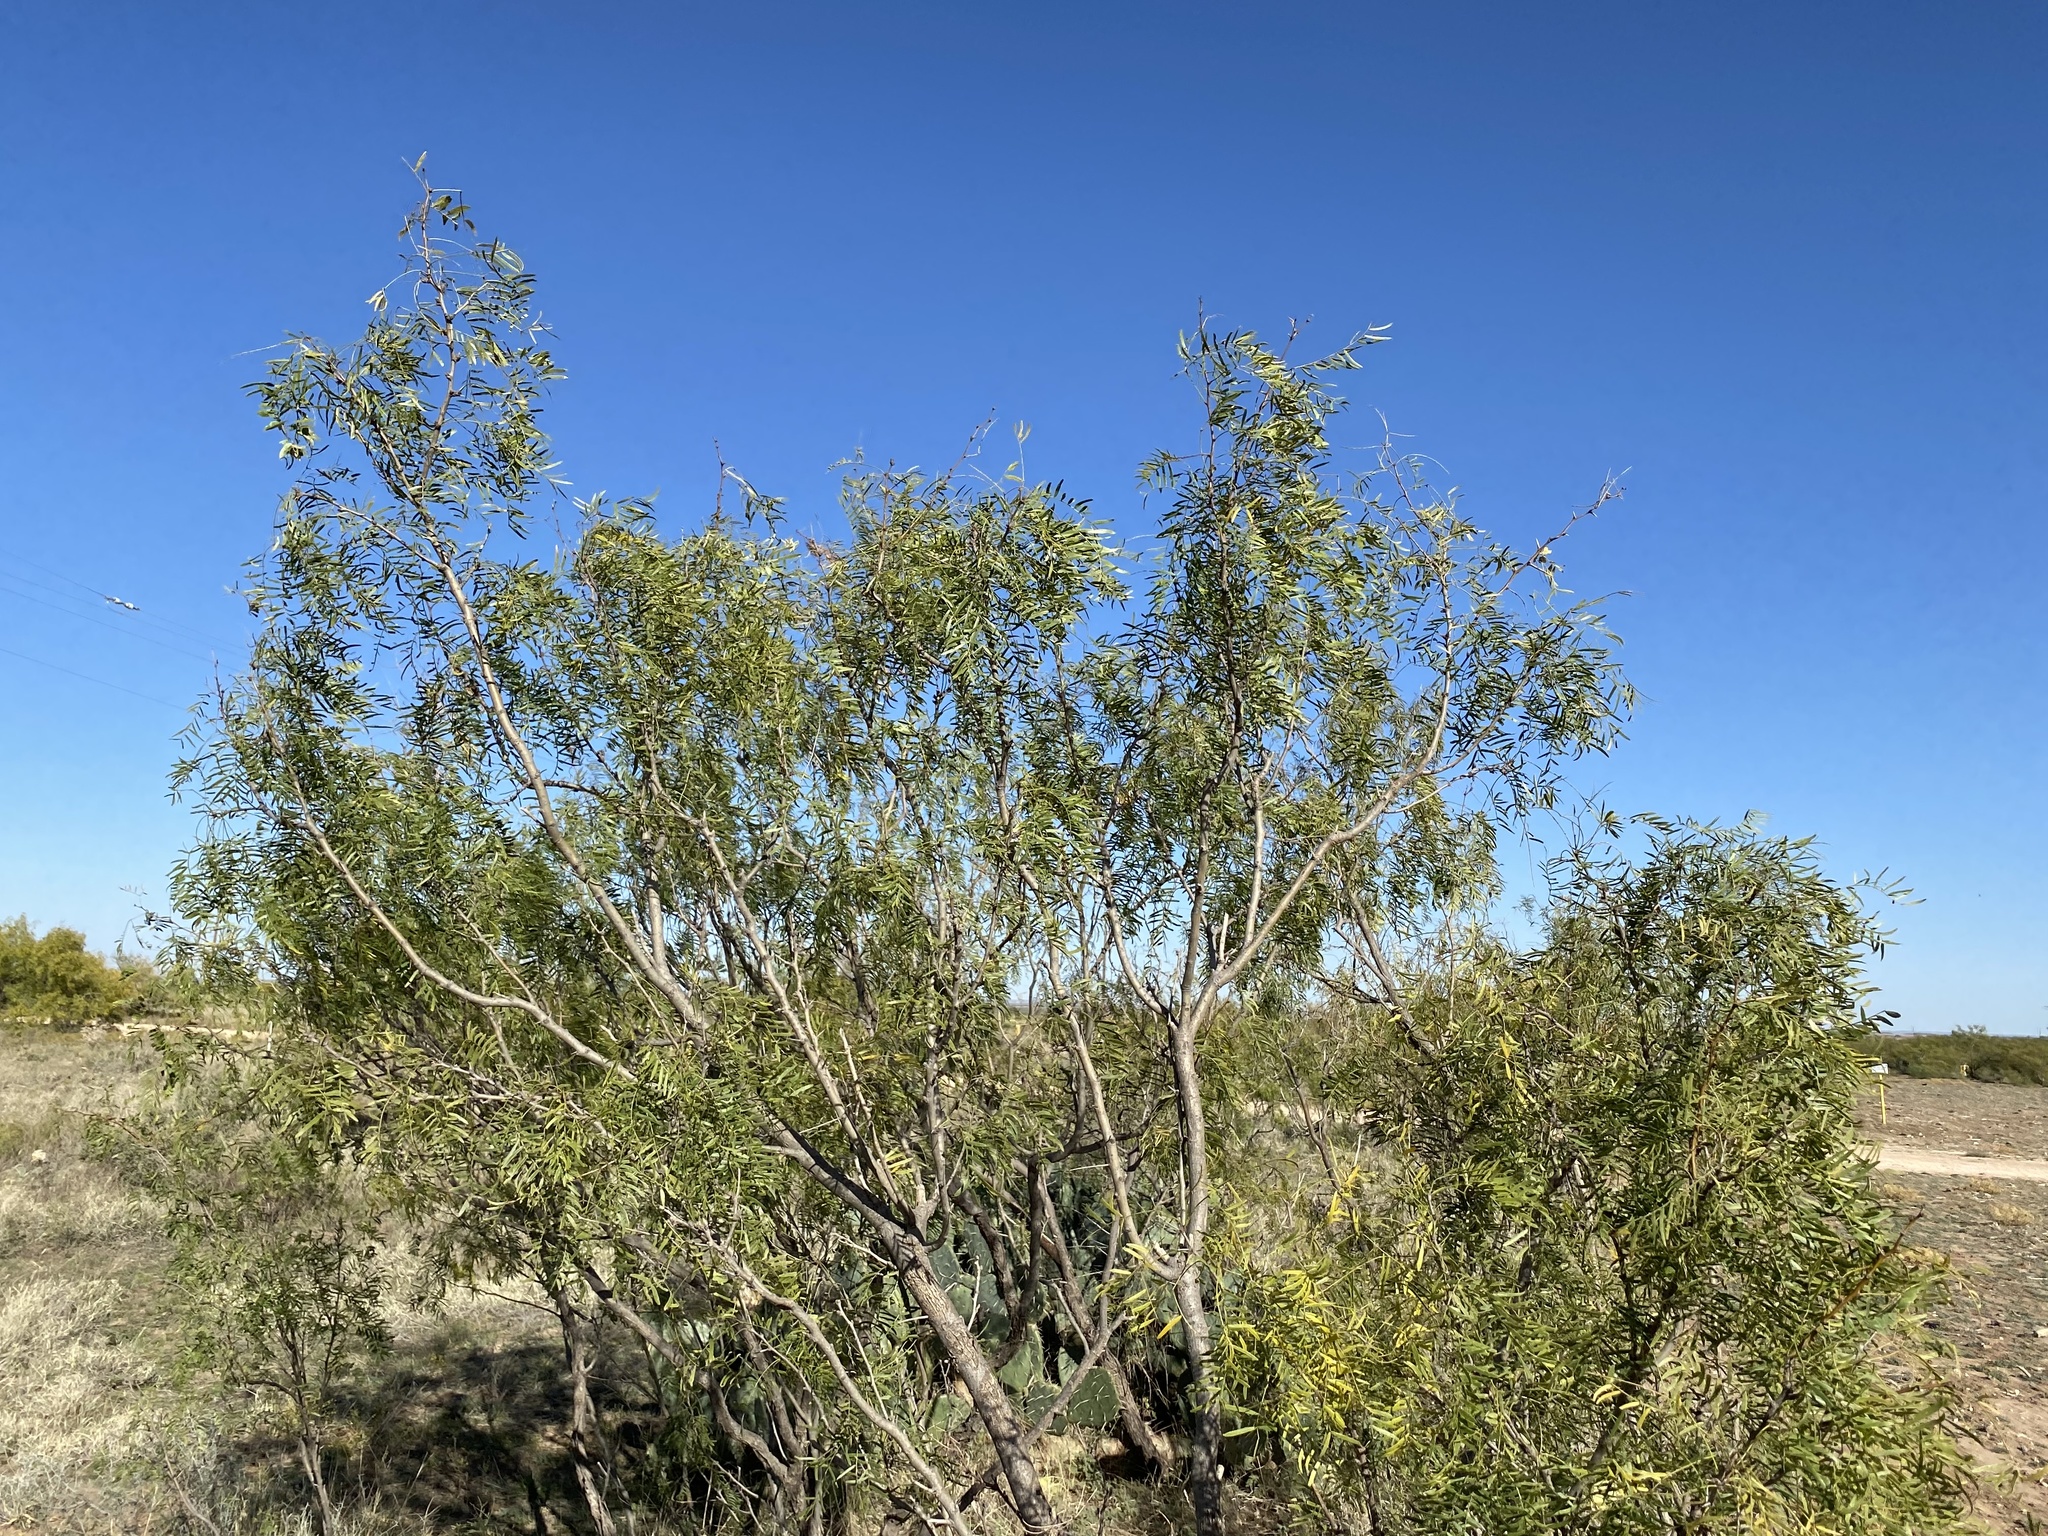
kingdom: Plantae
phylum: Tracheophyta
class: Magnoliopsida
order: Fabales
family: Fabaceae
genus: Prosopis
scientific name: Prosopis glandulosa
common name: Honey mesquite
